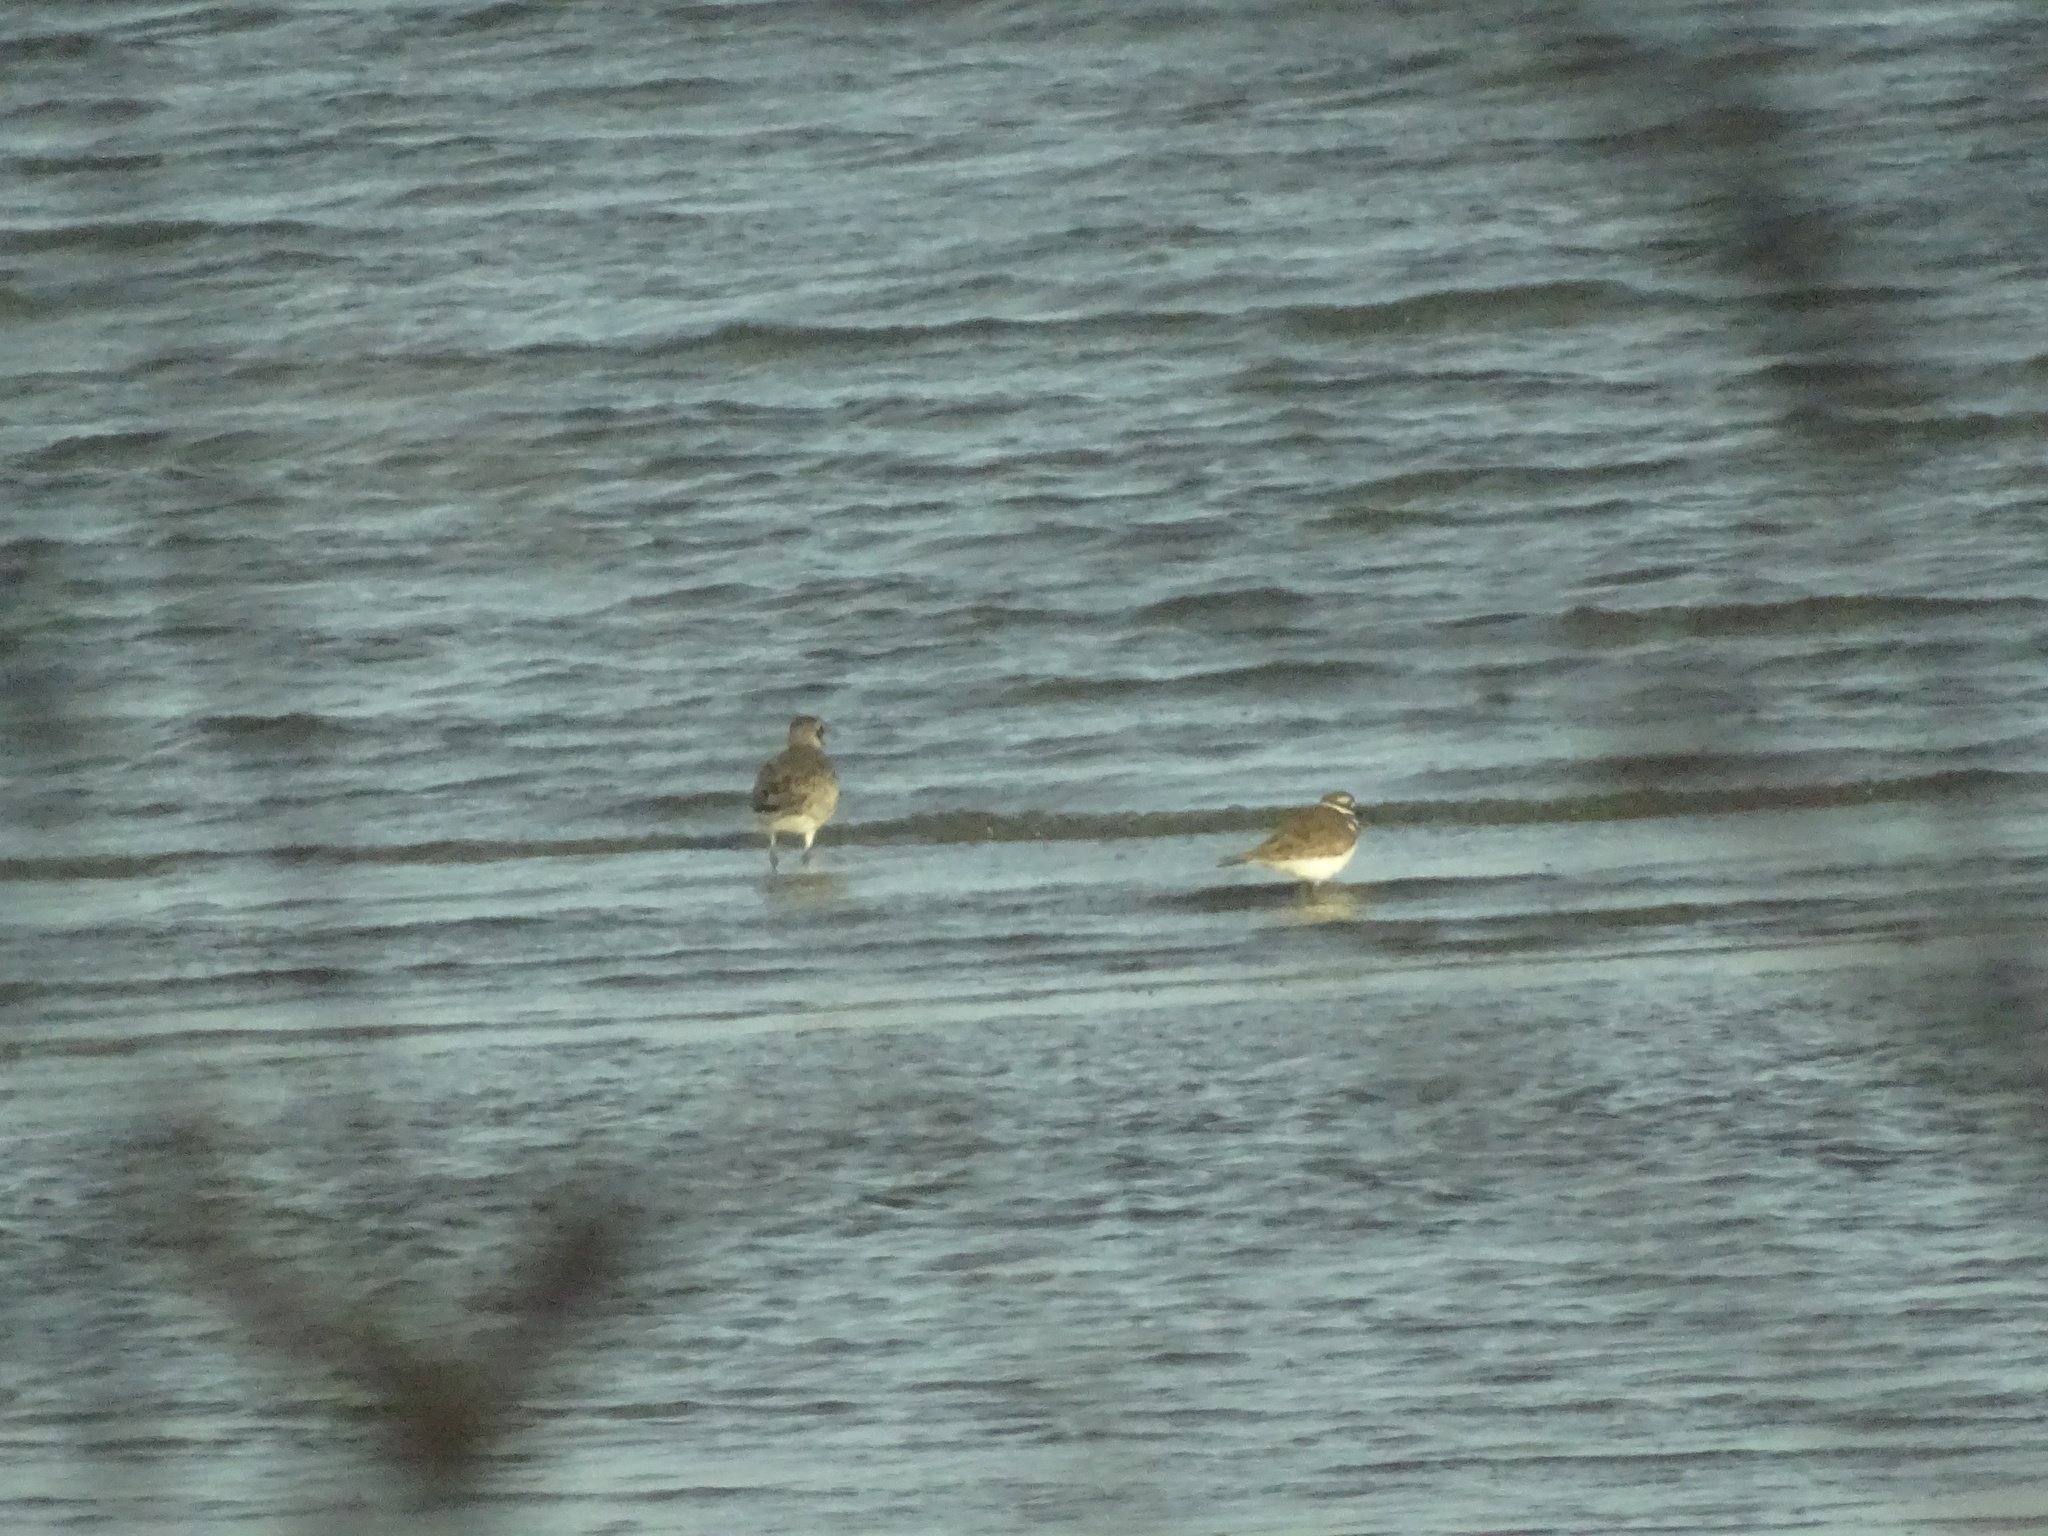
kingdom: Animalia
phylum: Chordata
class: Aves
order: Charadriiformes
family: Charadriidae
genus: Charadrius
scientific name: Charadrius vociferus
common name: Killdeer
